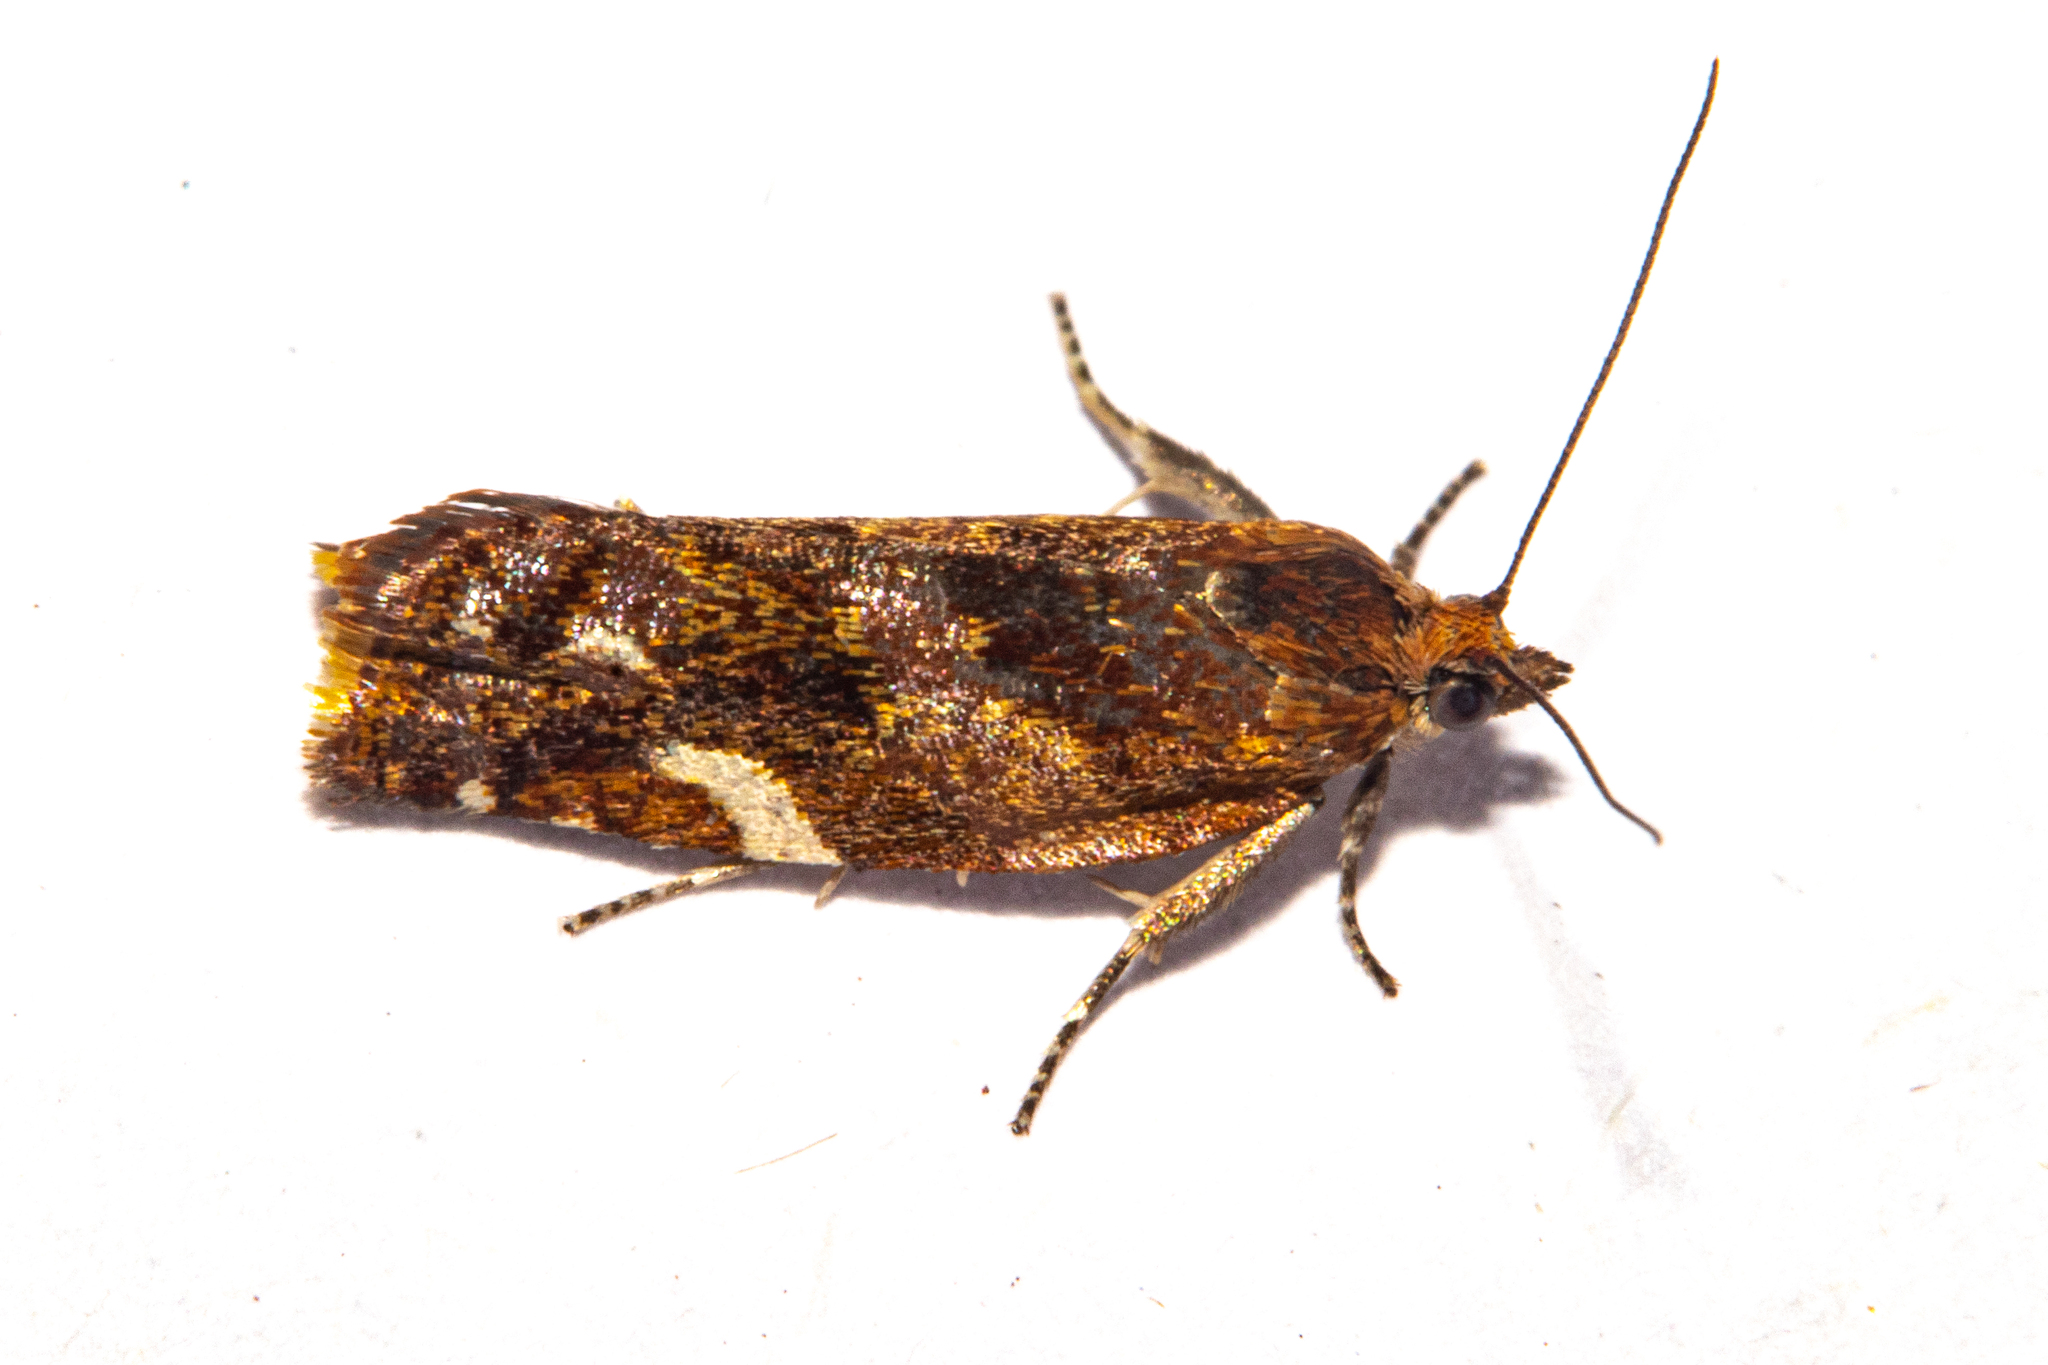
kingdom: Animalia
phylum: Arthropoda
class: Insecta
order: Lepidoptera
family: Tortricidae
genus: Epichorista
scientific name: Epichorista emphanes
